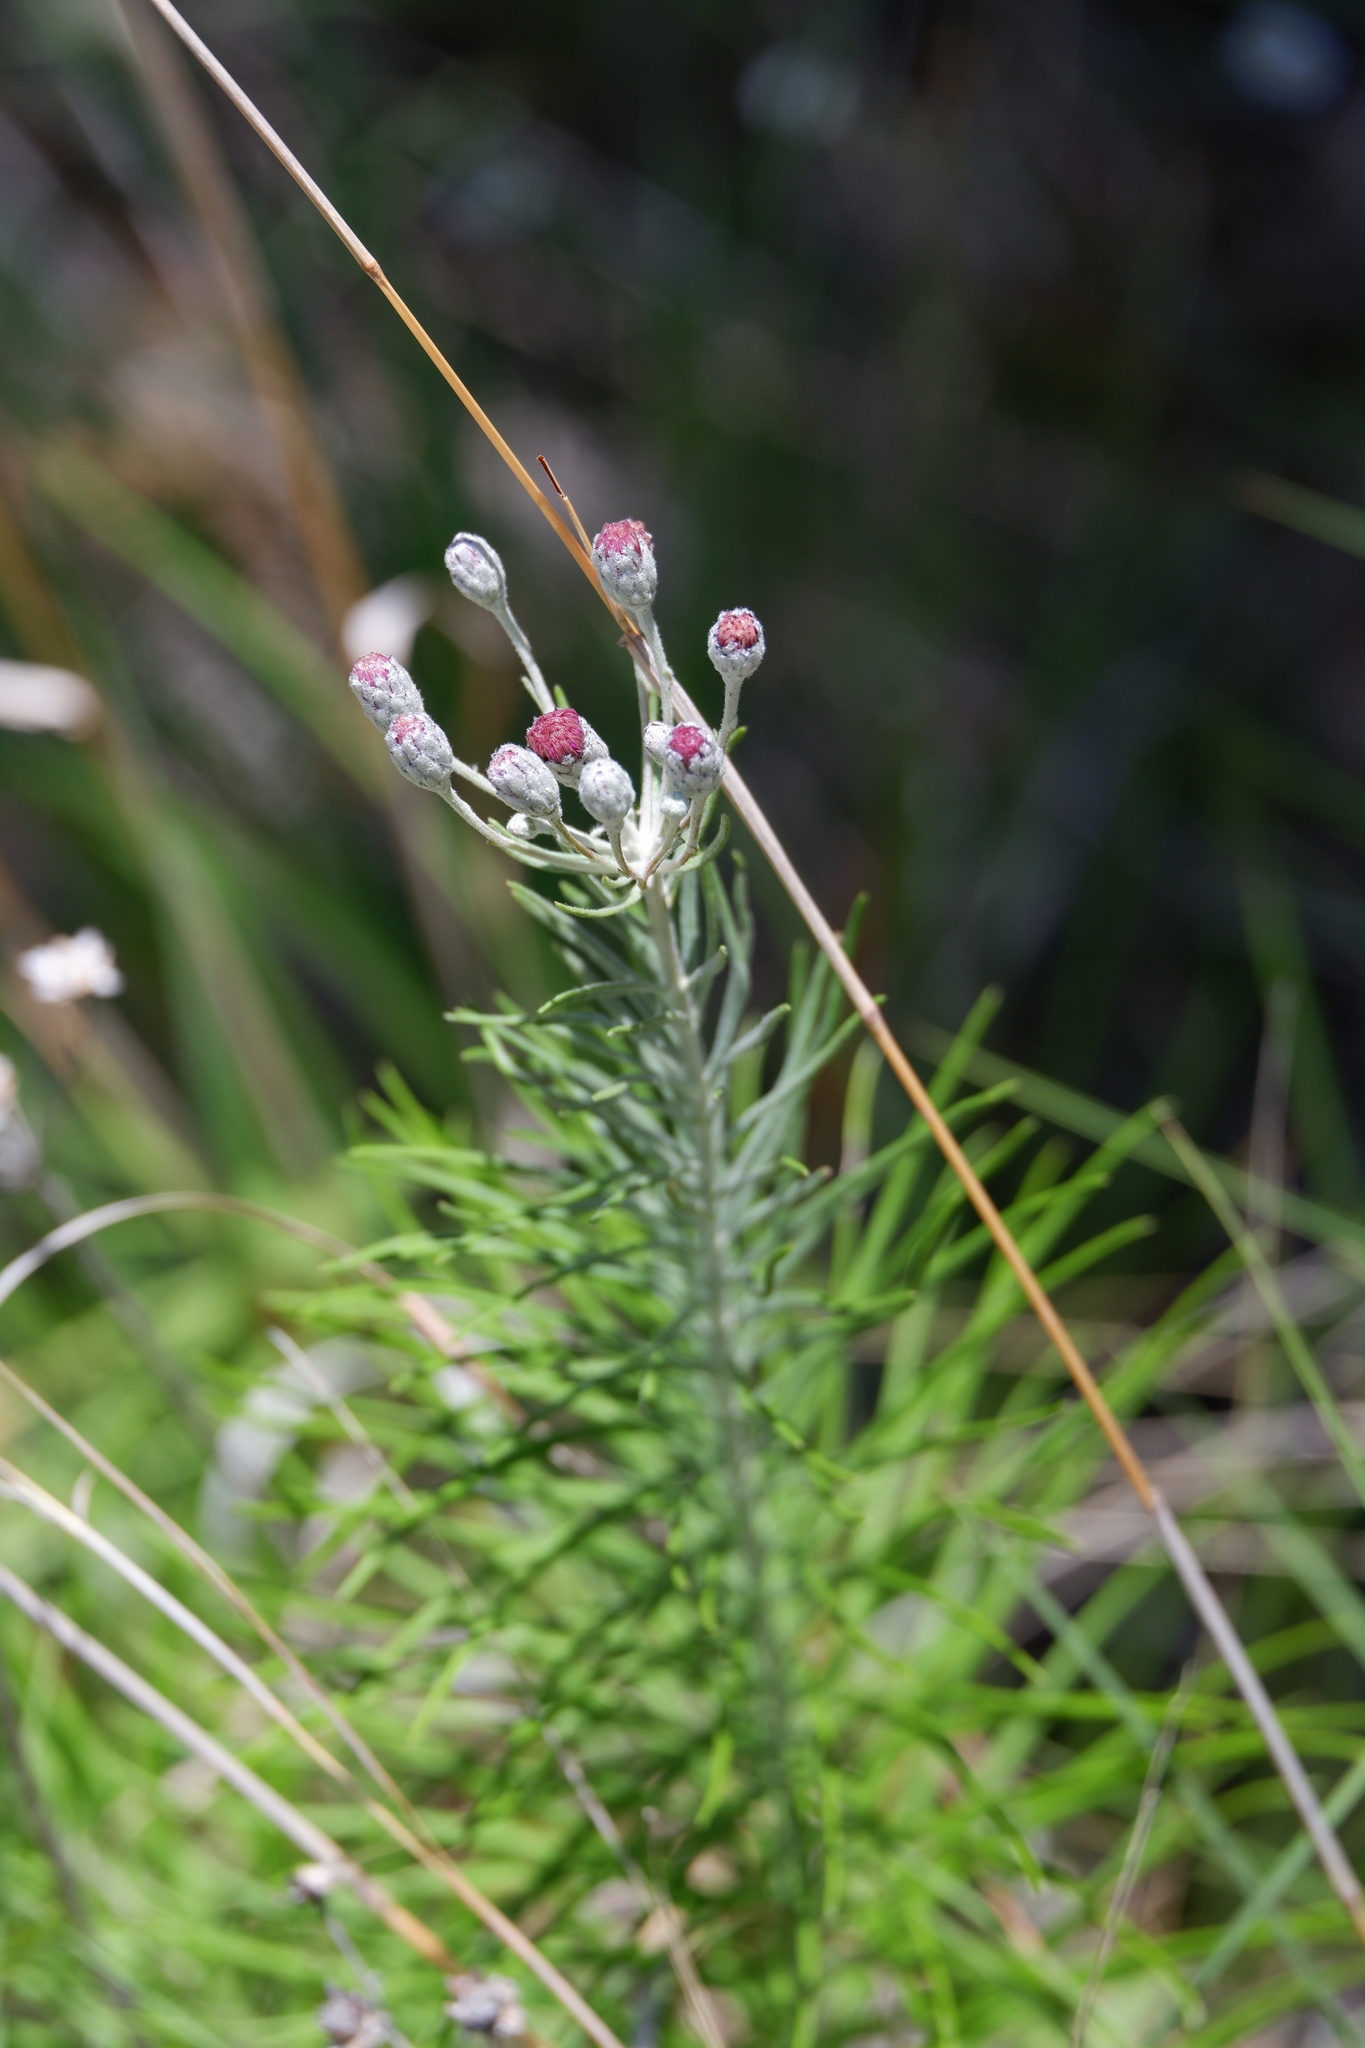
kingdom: Plantae
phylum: Tracheophyta
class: Magnoliopsida
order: Asterales
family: Asteraceae
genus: Vernonia
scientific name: Vernonia lindheimeri
